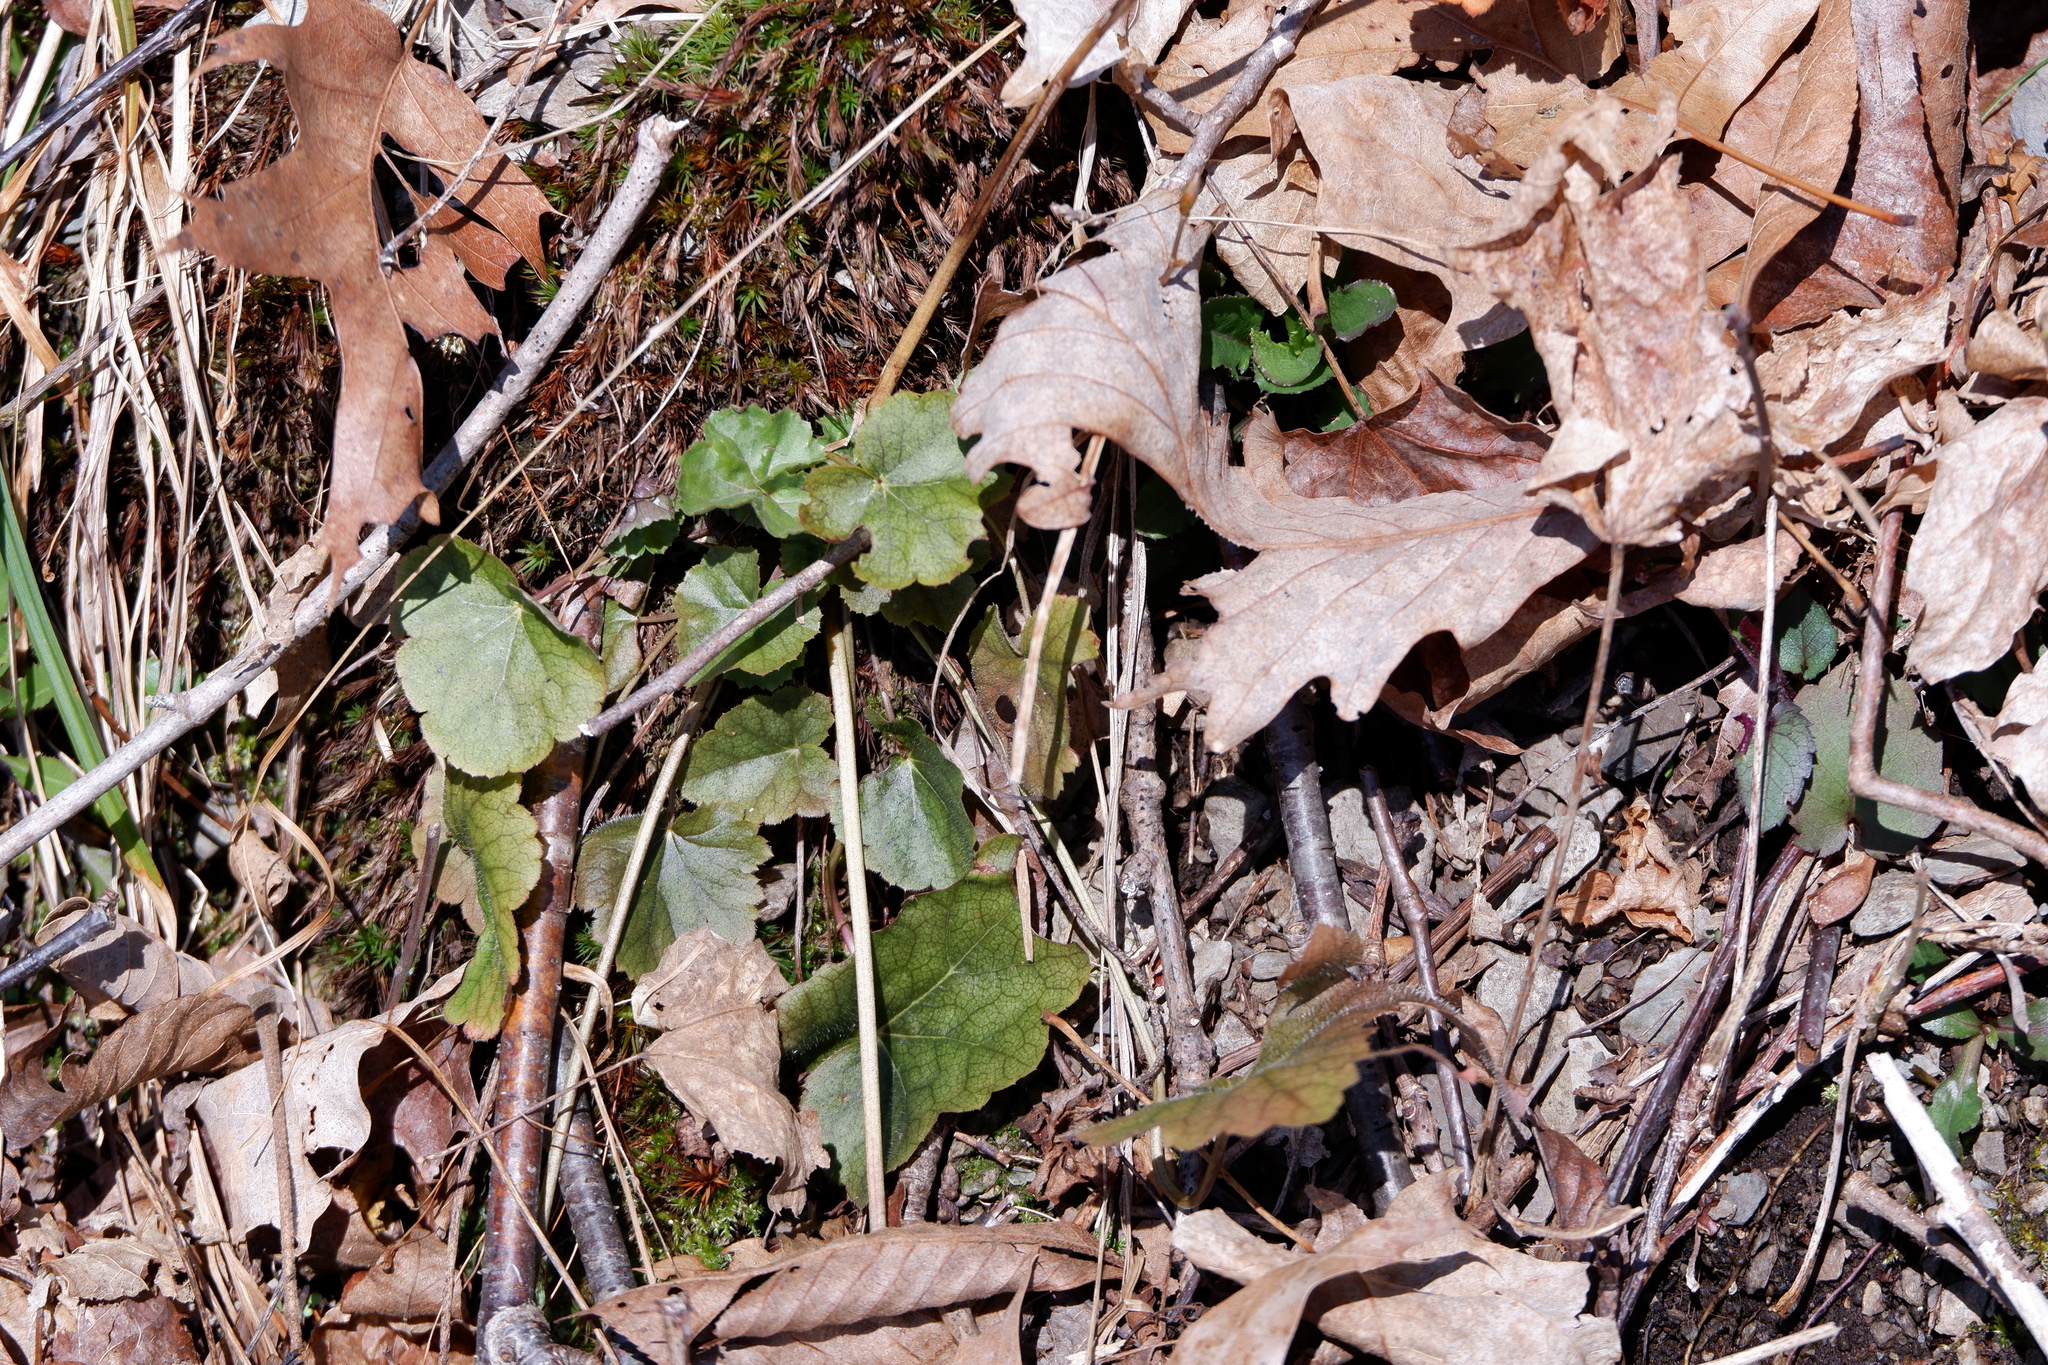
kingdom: Plantae
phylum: Tracheophyta
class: Magnoliopsida
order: Saxifragales
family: Saxifragaceae
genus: Heuchera
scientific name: Heuchera americana
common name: Alumroot
